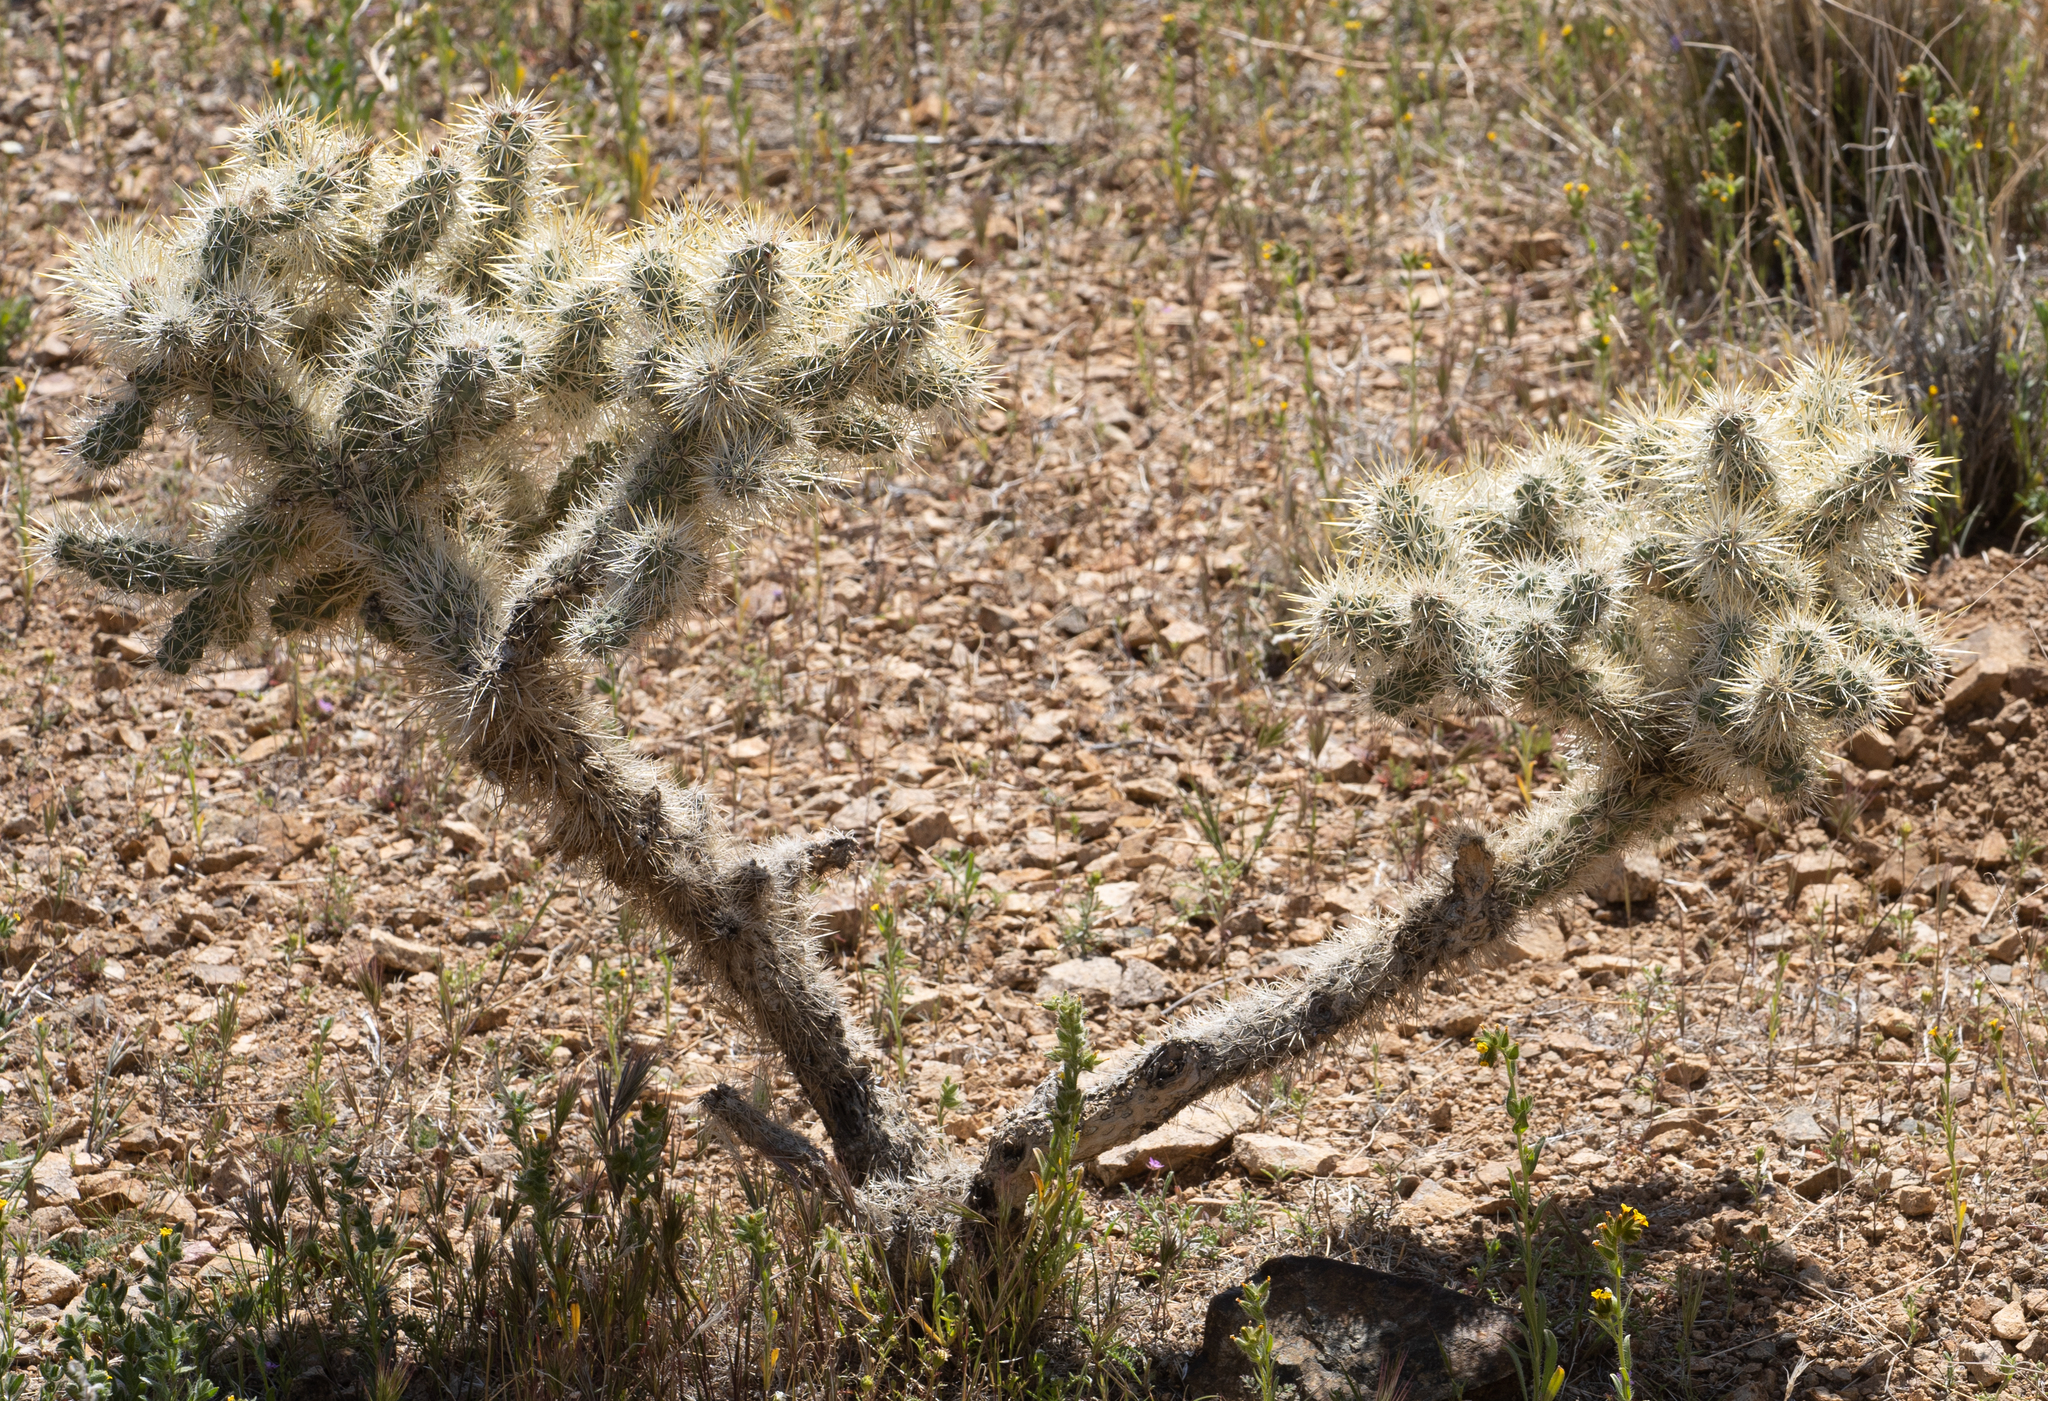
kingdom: Plantae
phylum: Tracheophyta
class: Magnoliopsida
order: Caryophyllales
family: Cactaceae
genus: Cylindropuntia
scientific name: Cylindropuntia echinocarpa
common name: Ground cholla
